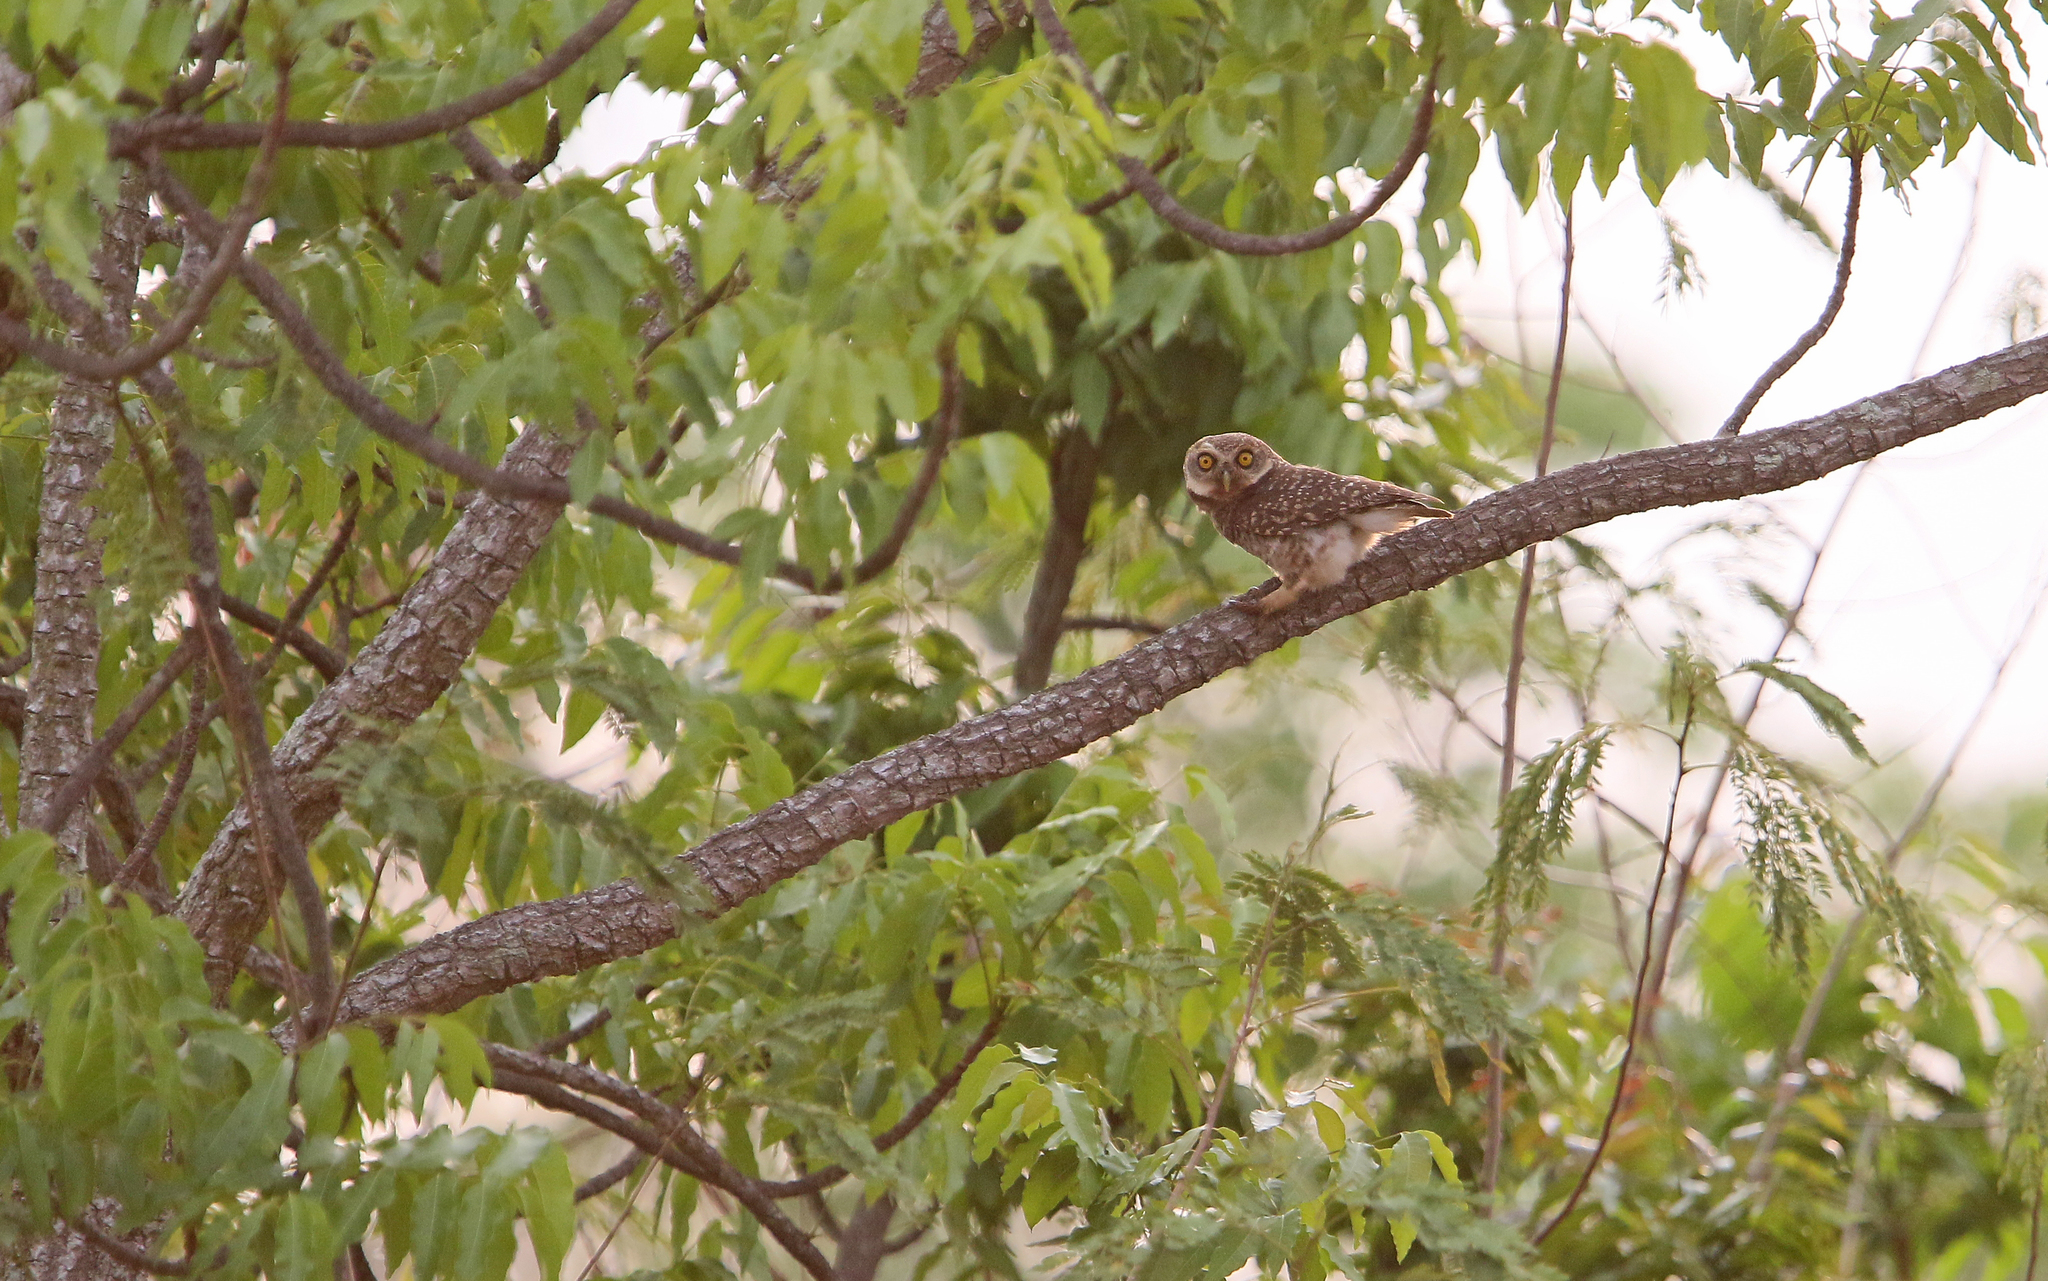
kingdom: Animalia
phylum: Chordata
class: Aves
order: Strigiformes
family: Strigidae
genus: Athene
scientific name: Athene brama
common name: Spotted owlet
